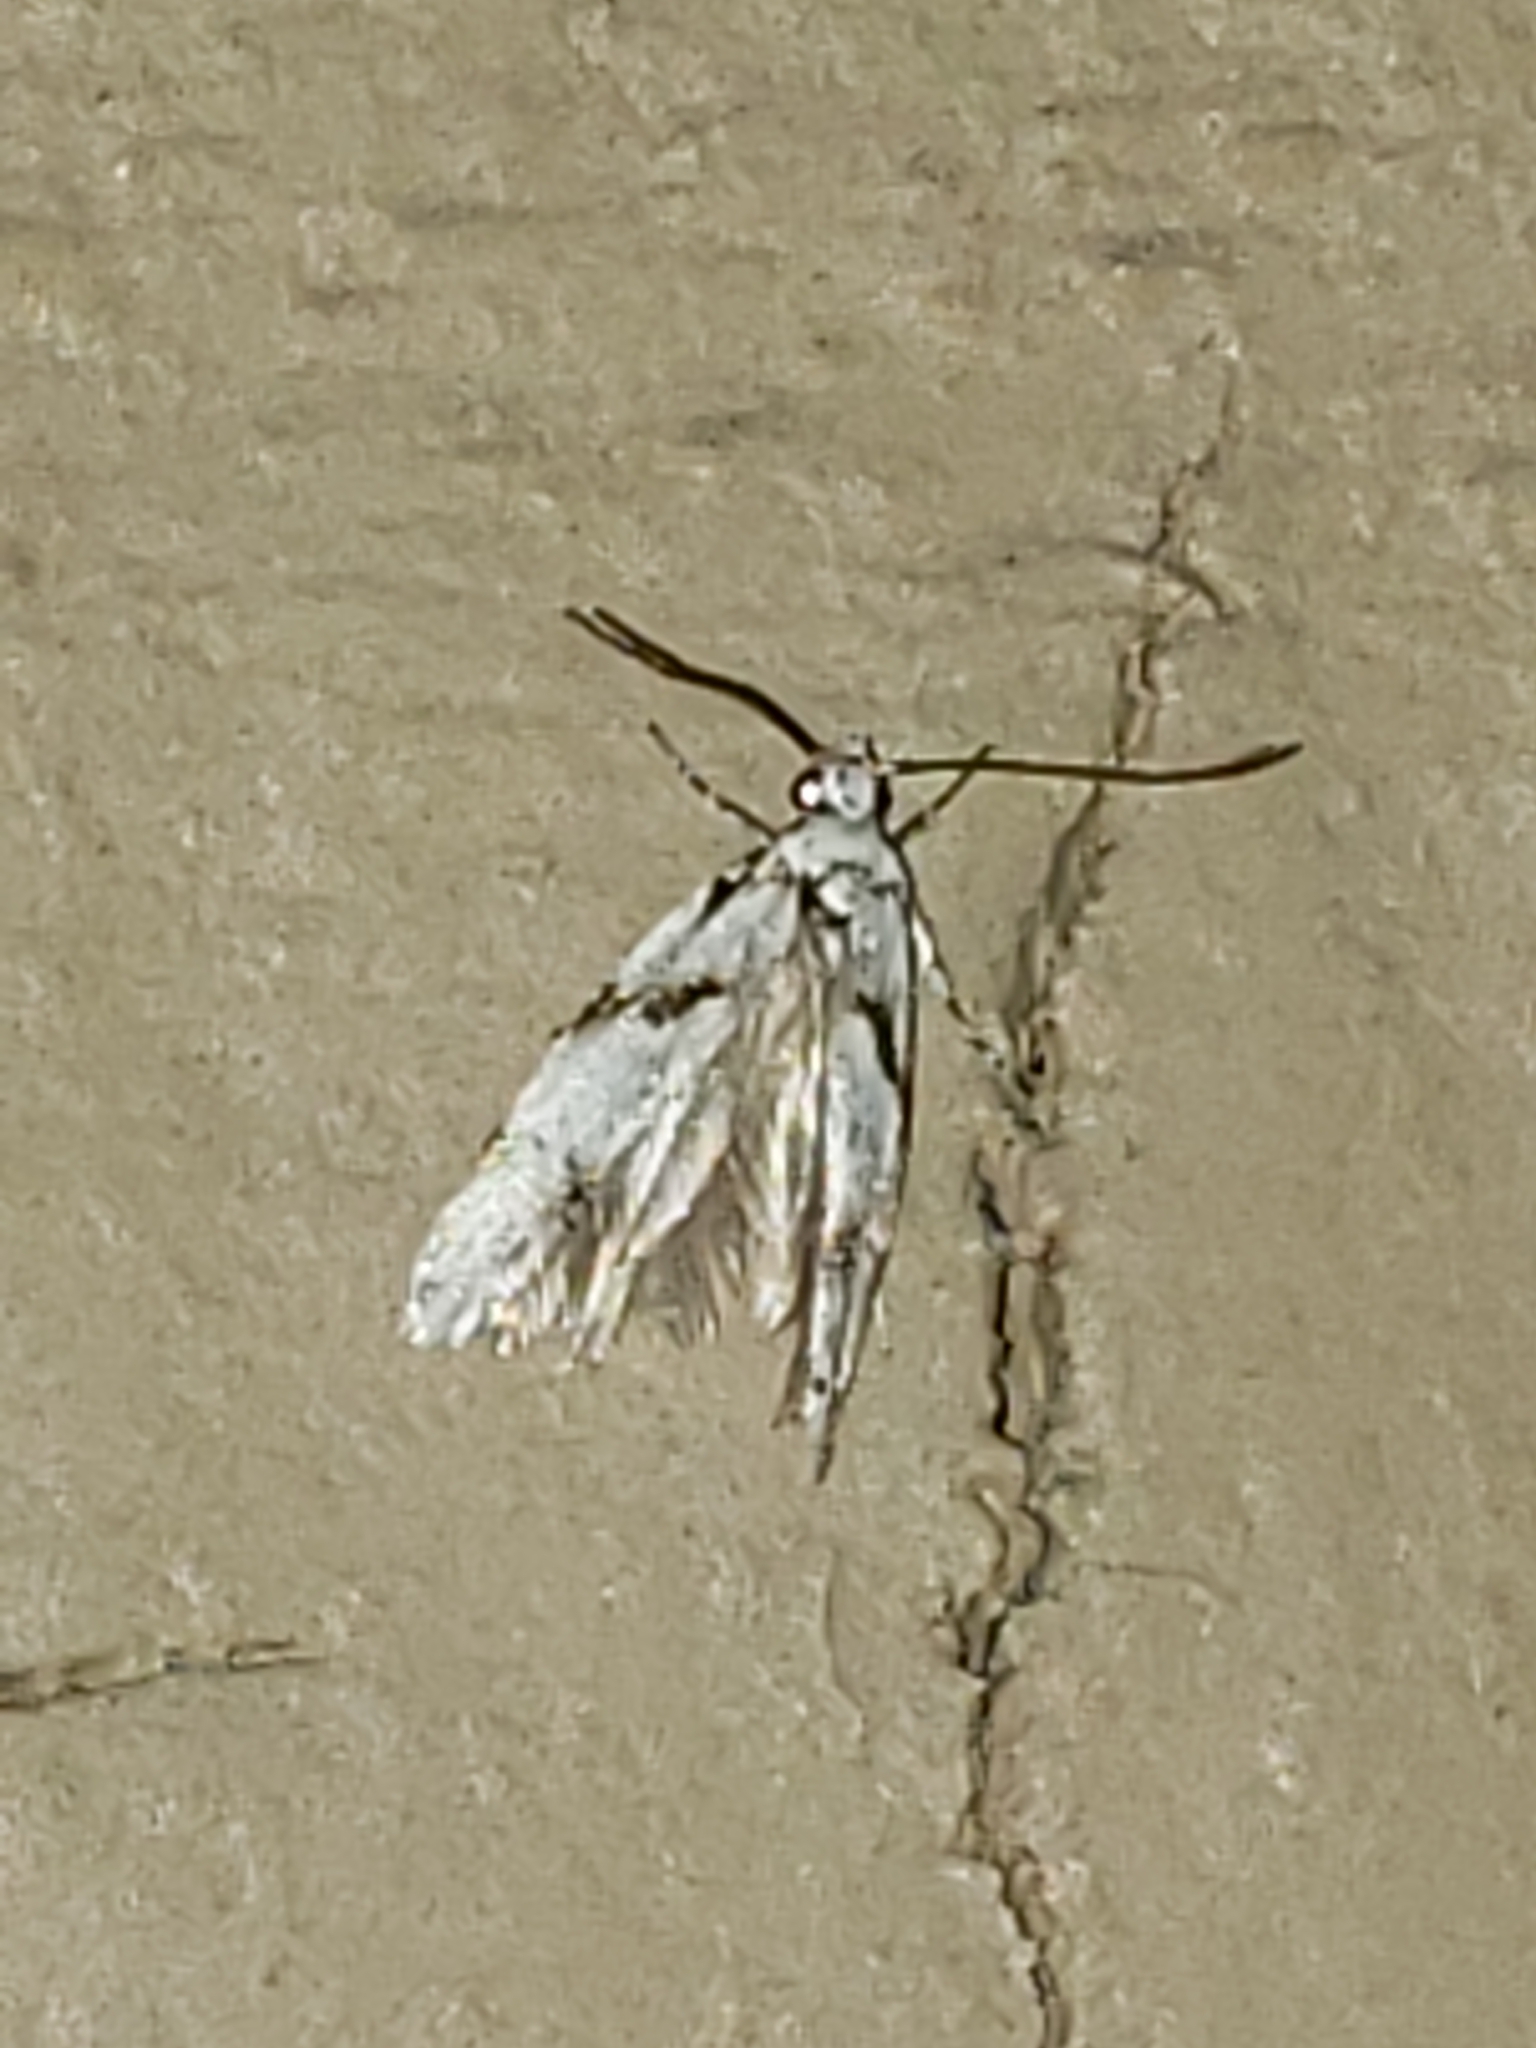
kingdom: Animalia
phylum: Arthropoda
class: Insecta
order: Lepidoptera
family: Gelechiidae
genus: Arogalea
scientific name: Arogalea cristifasciella
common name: White stripe-backed moth
